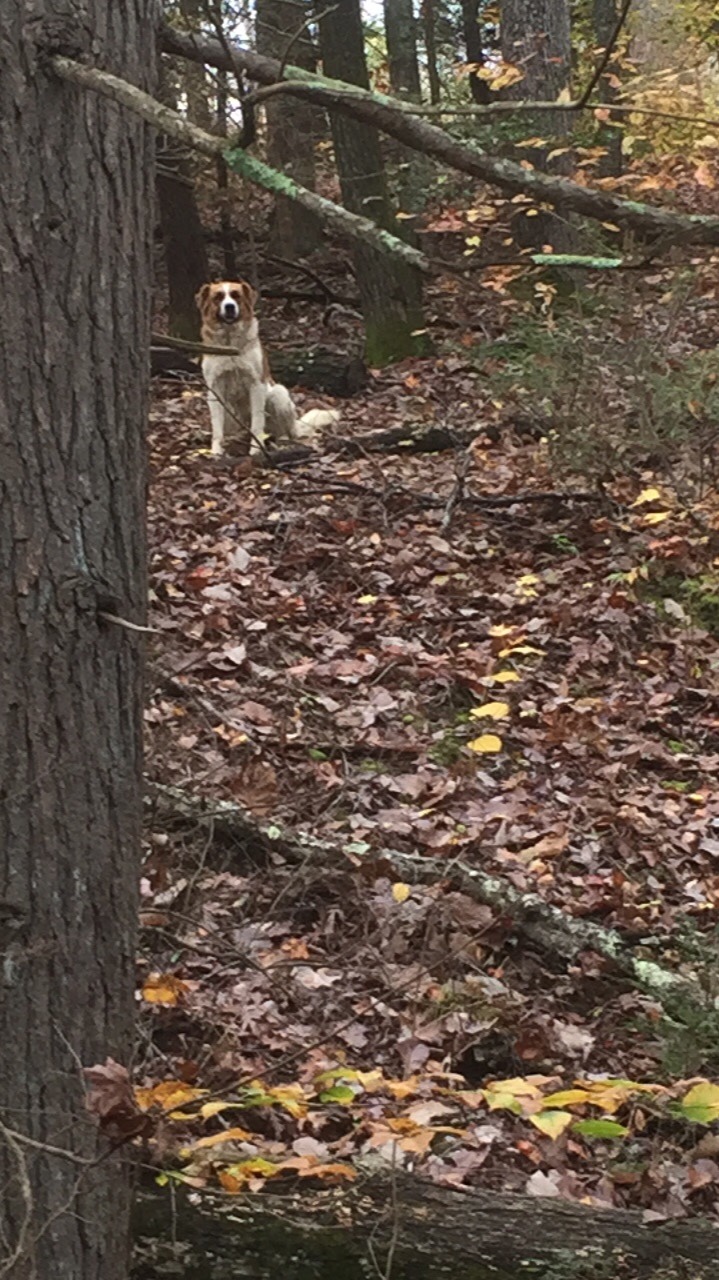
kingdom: Animalia
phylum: Chordata
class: Mammalia
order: Carnivora
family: Canidae
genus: Canis
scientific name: Canis lupus
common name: Gray wolf
